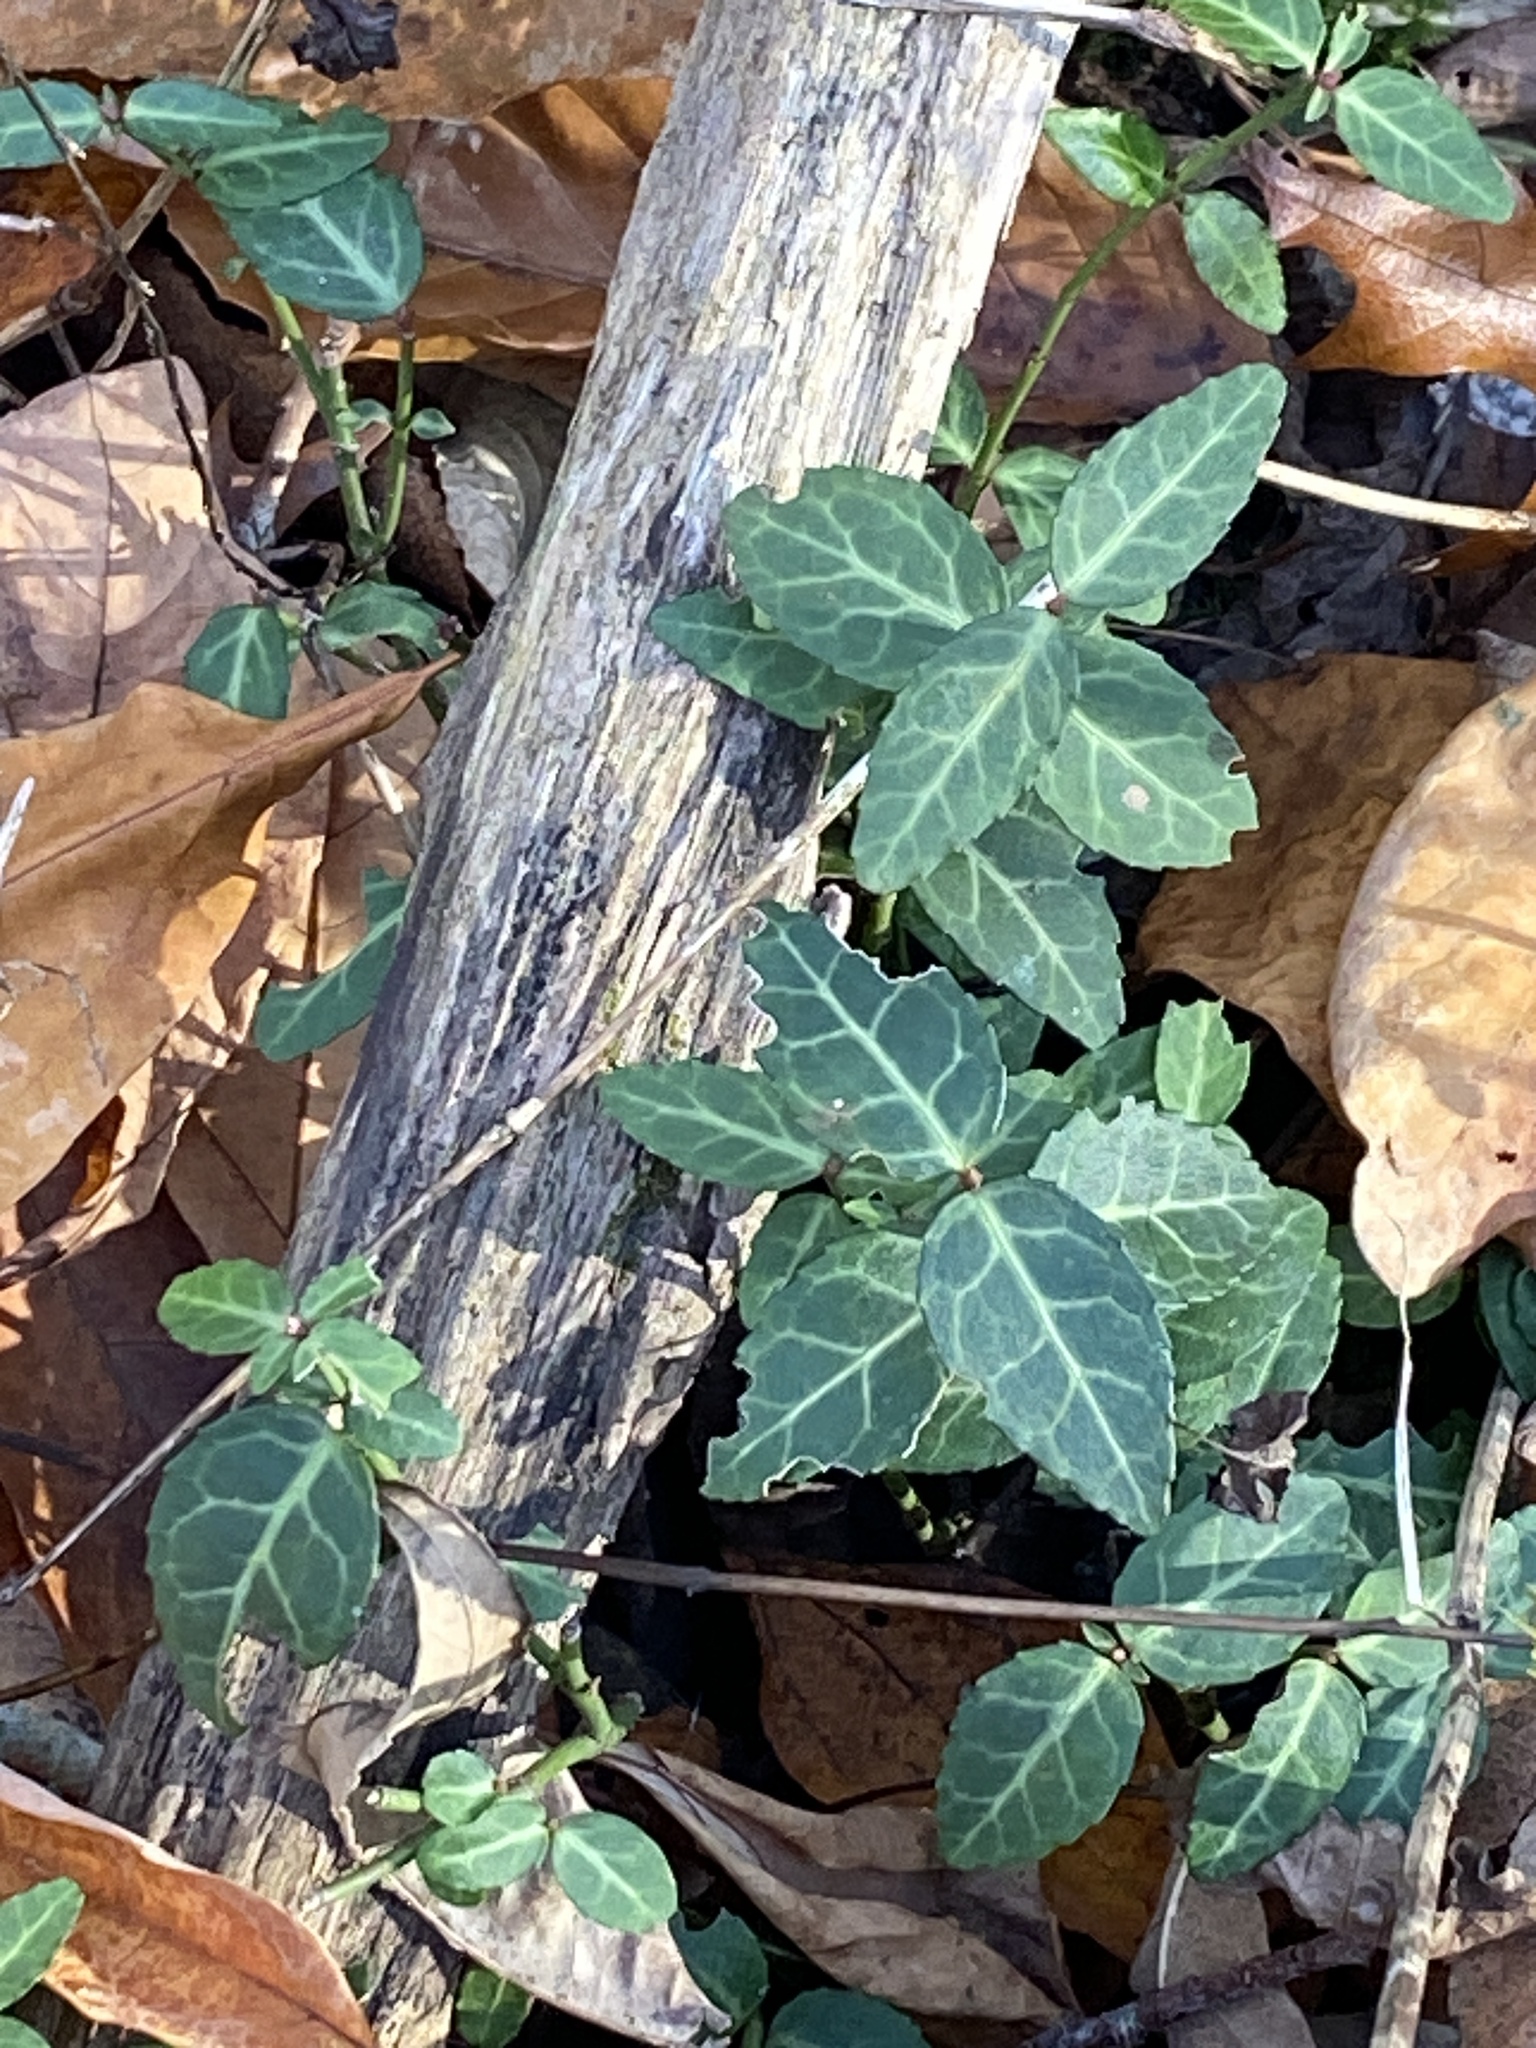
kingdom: Plantae
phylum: Tracheophyta
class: Magnoliopsida
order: Celastrales
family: Celastraceae
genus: Euonymus
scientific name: Euonymus fortunei
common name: Climbing euonymus
